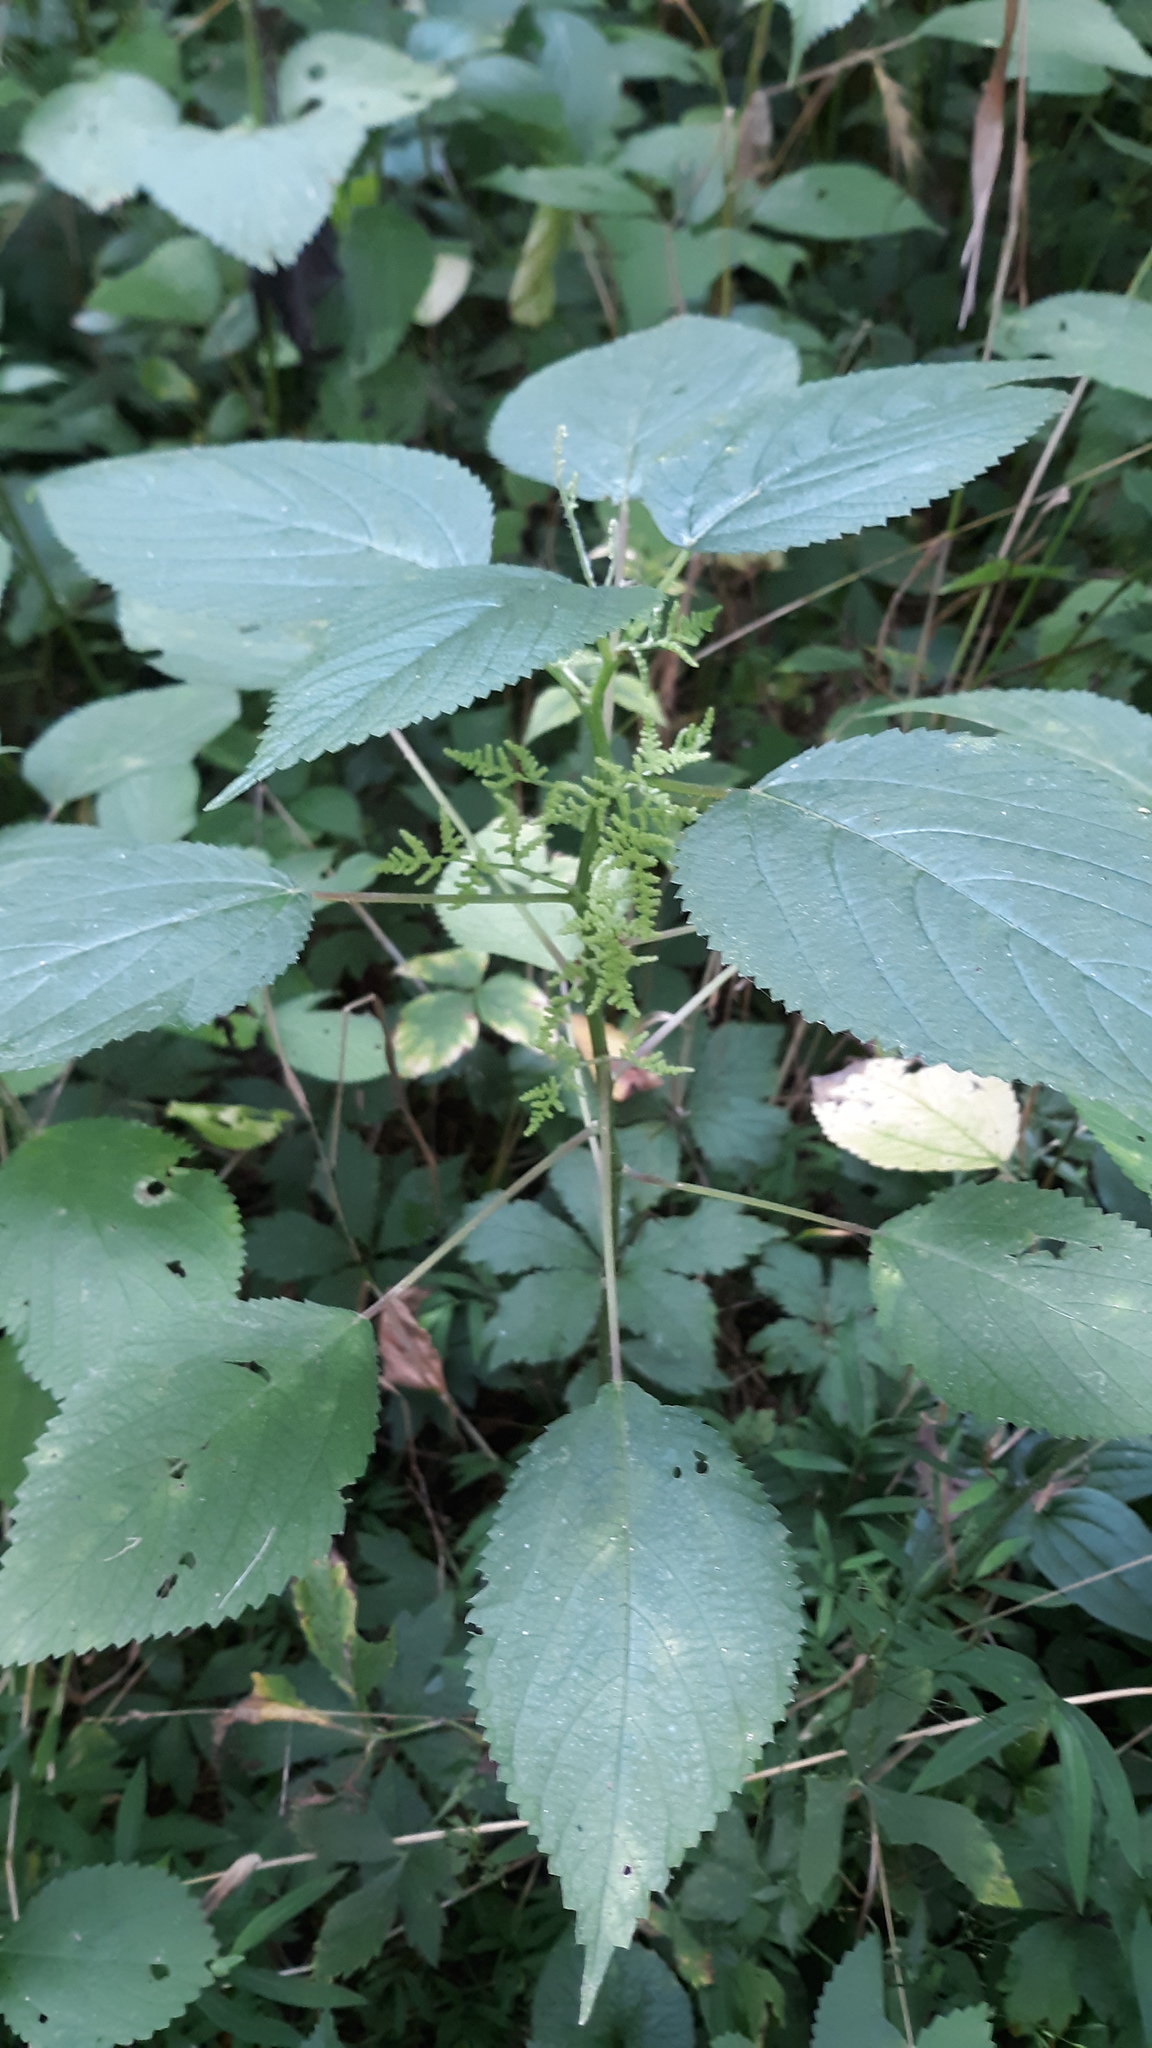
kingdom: Plantae
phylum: Tracheophyta
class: Magnoliopsida
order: Rosales
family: Urticaceae
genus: Laportea
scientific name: Laportea canadensis
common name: Canada nettle
